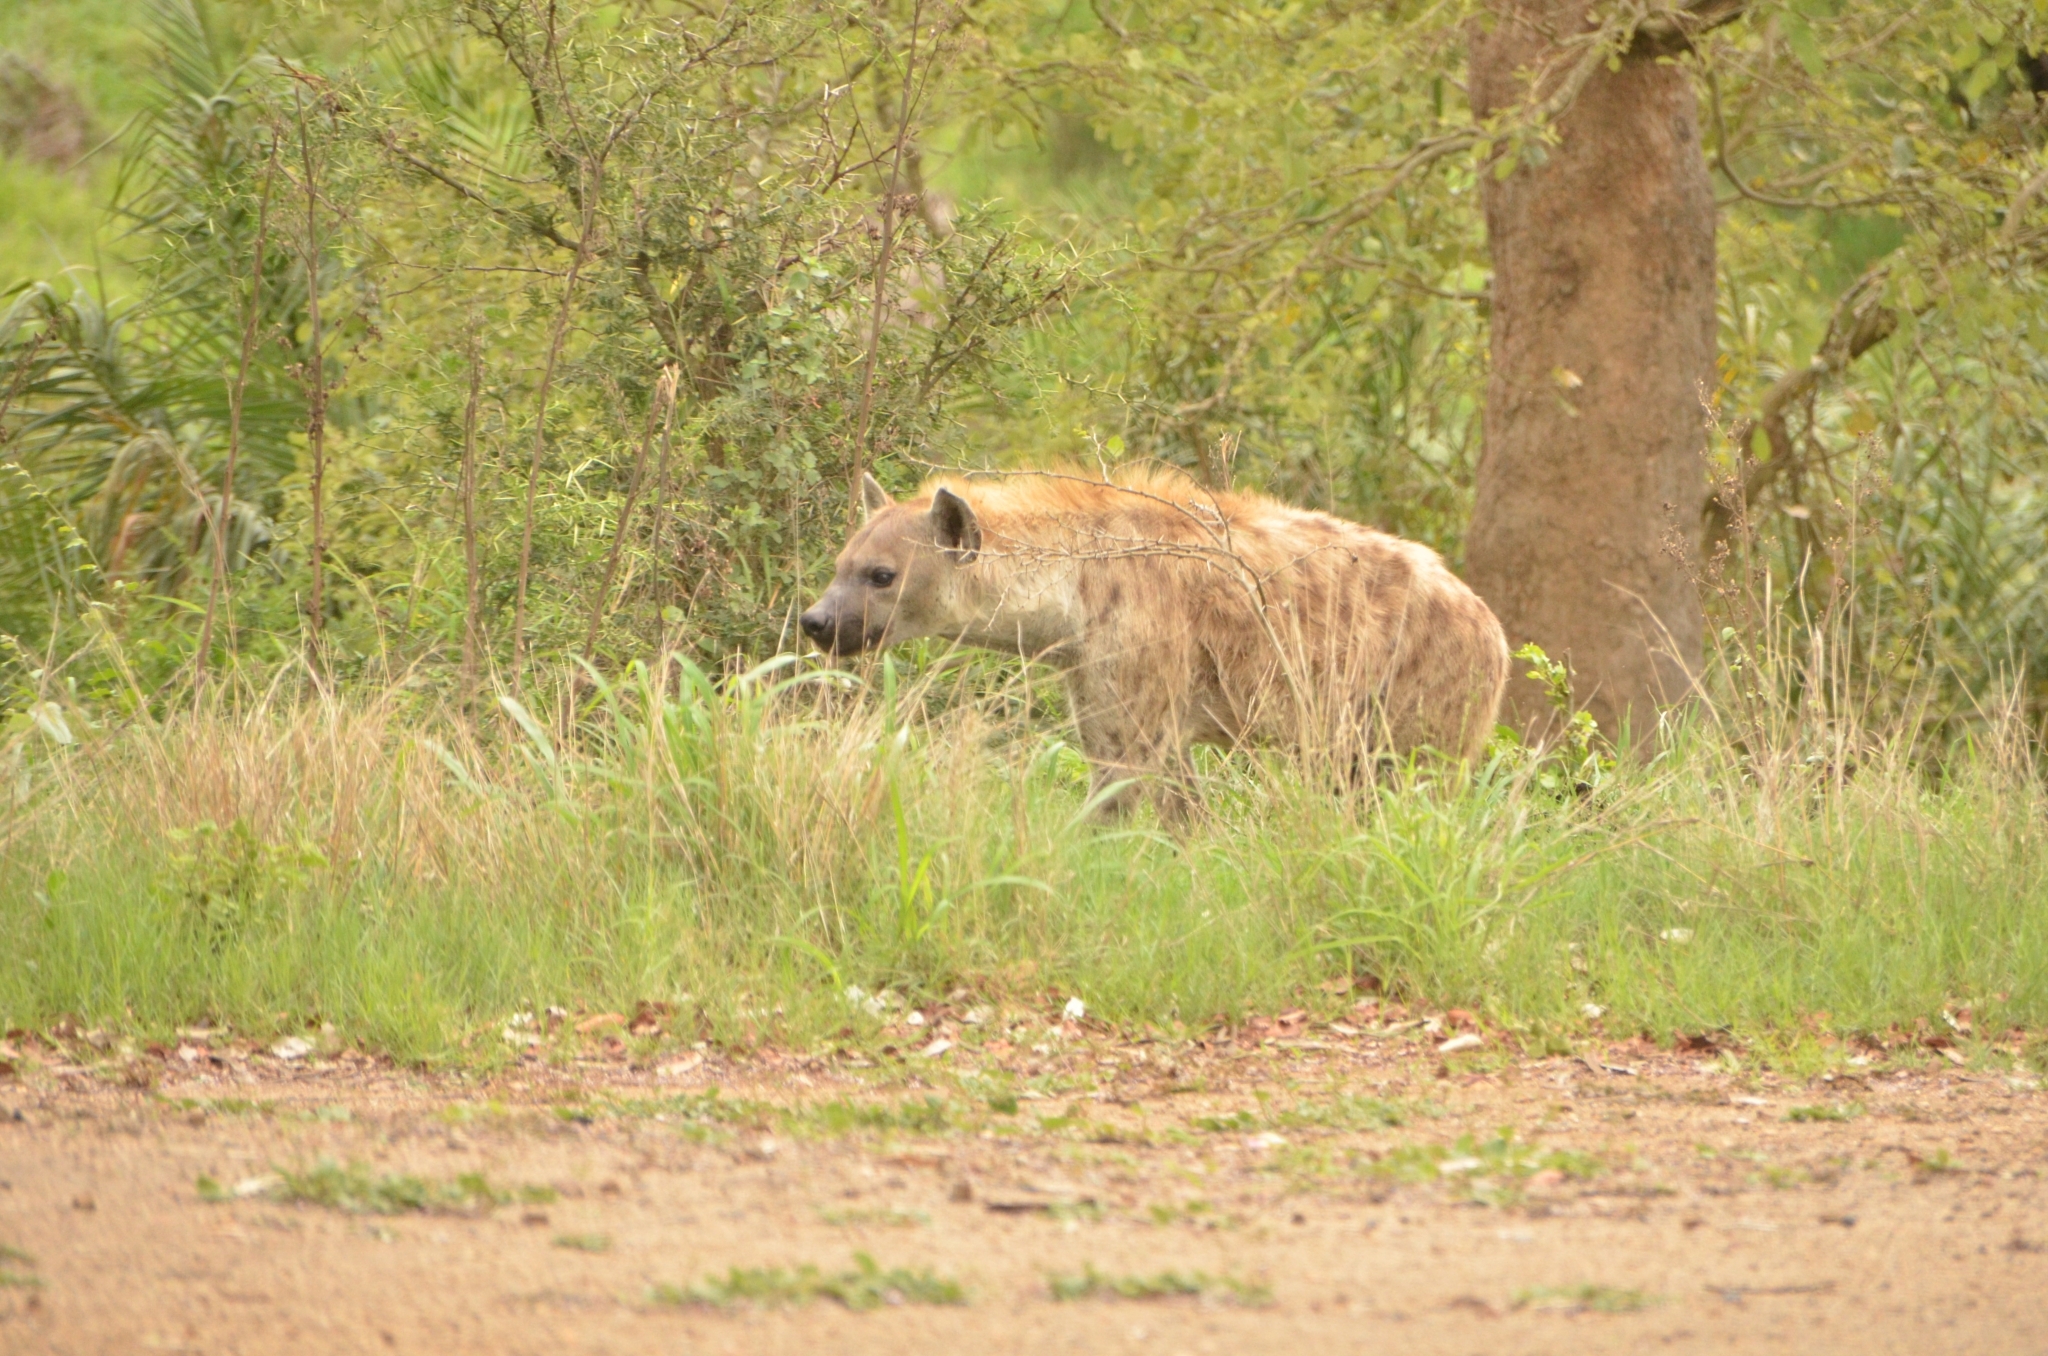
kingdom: Animalia
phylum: Chordata
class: Mammalia
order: Carnivora
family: Hyaenidae
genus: Crocuta
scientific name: Crocuta crocuta
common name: Spotted hyaena
